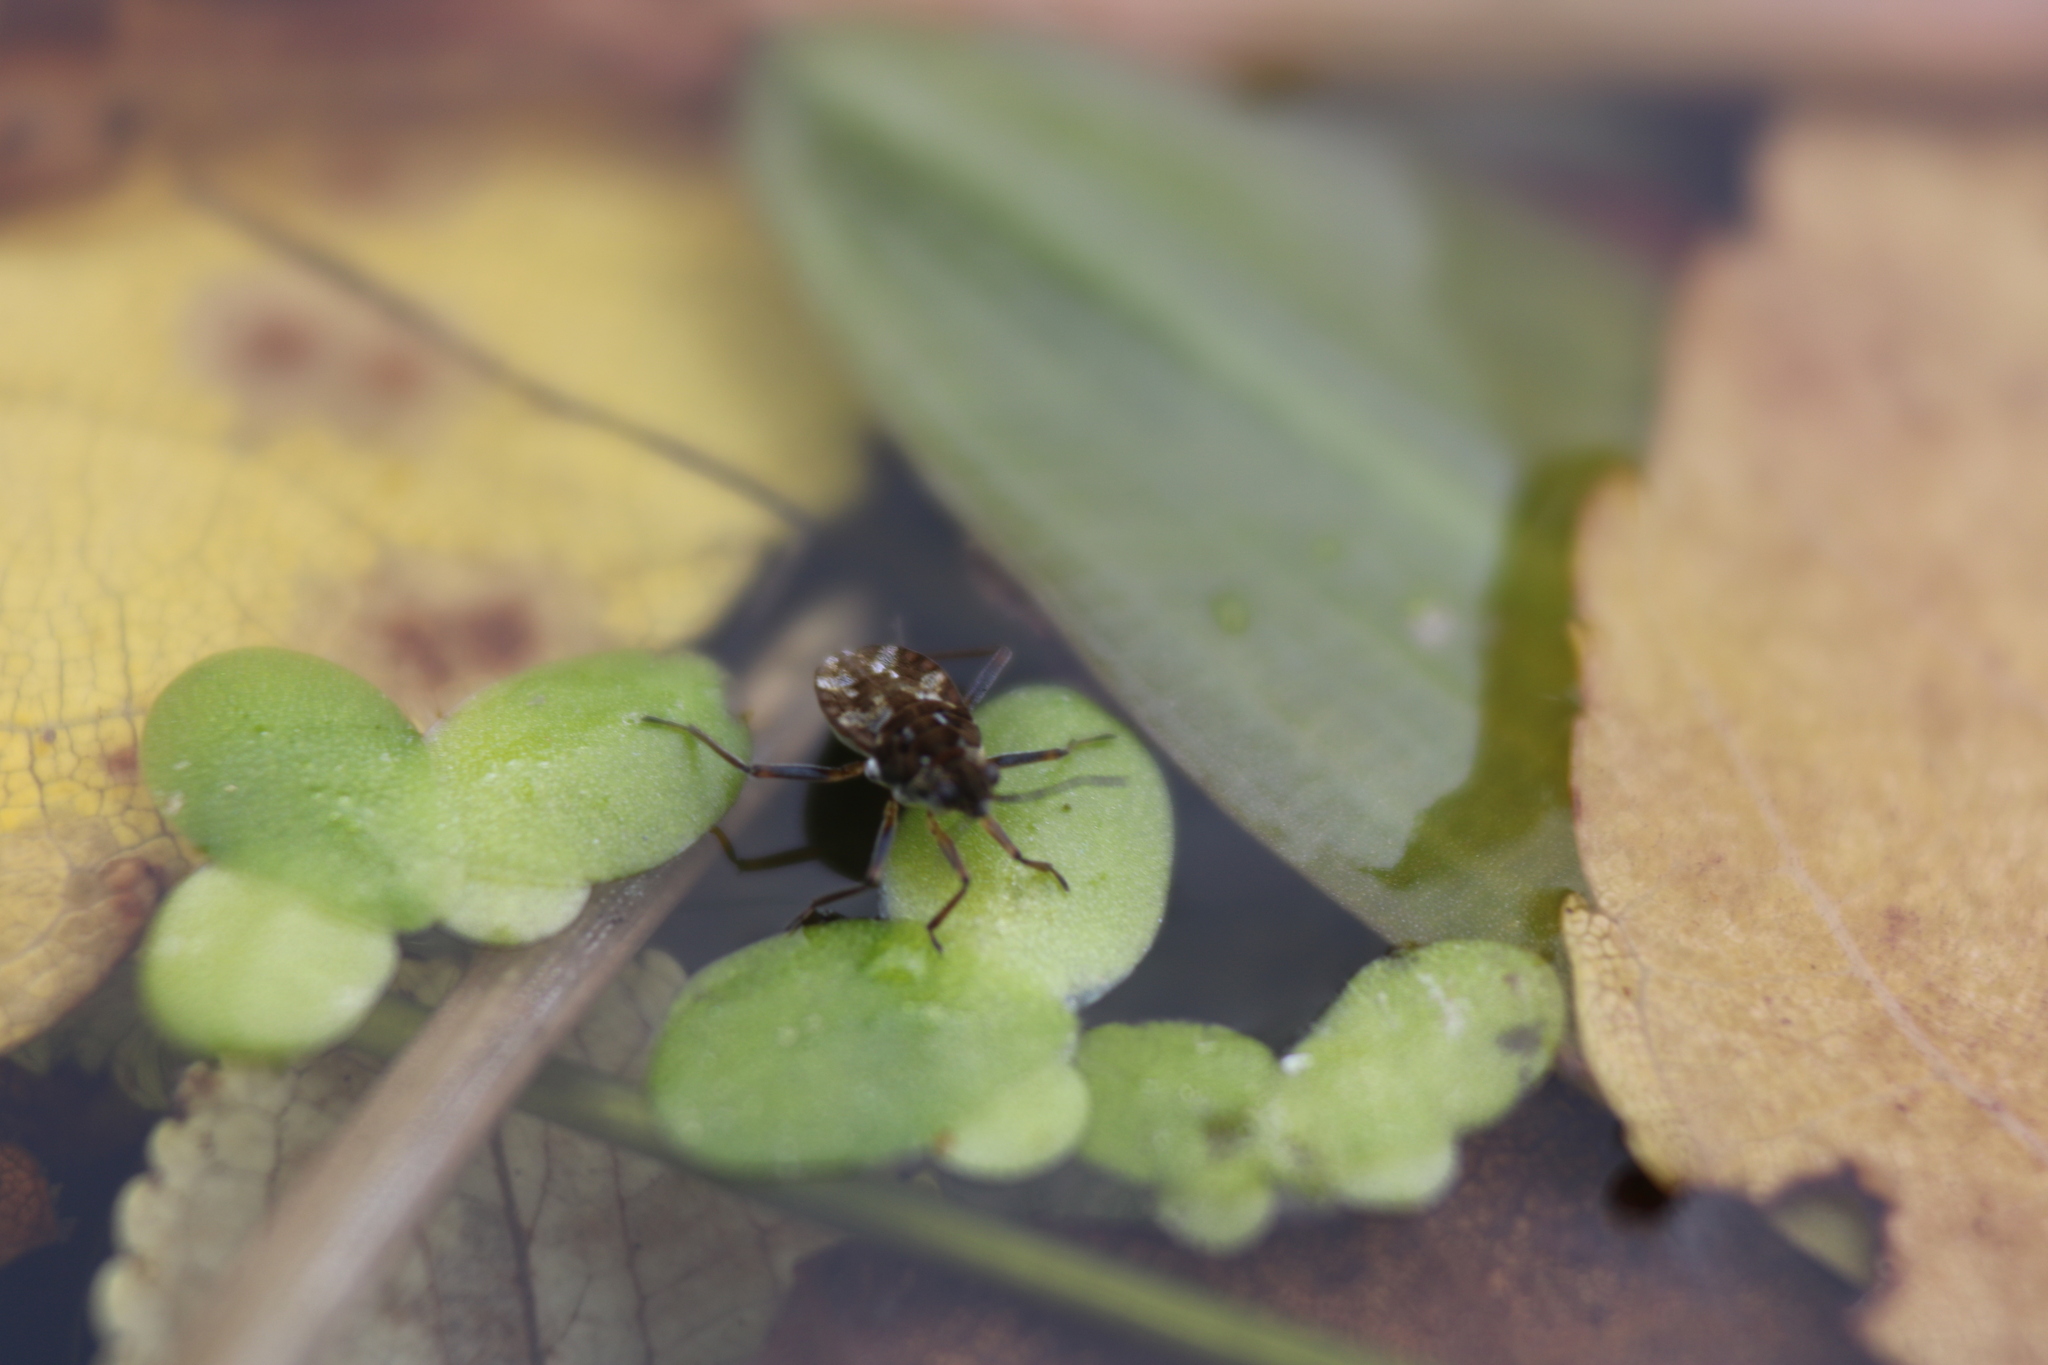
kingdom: Animalia
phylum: Arthropoda
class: Insecta
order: Hemiptera
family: Veliidae
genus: Microvelia
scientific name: Microvelia americana
